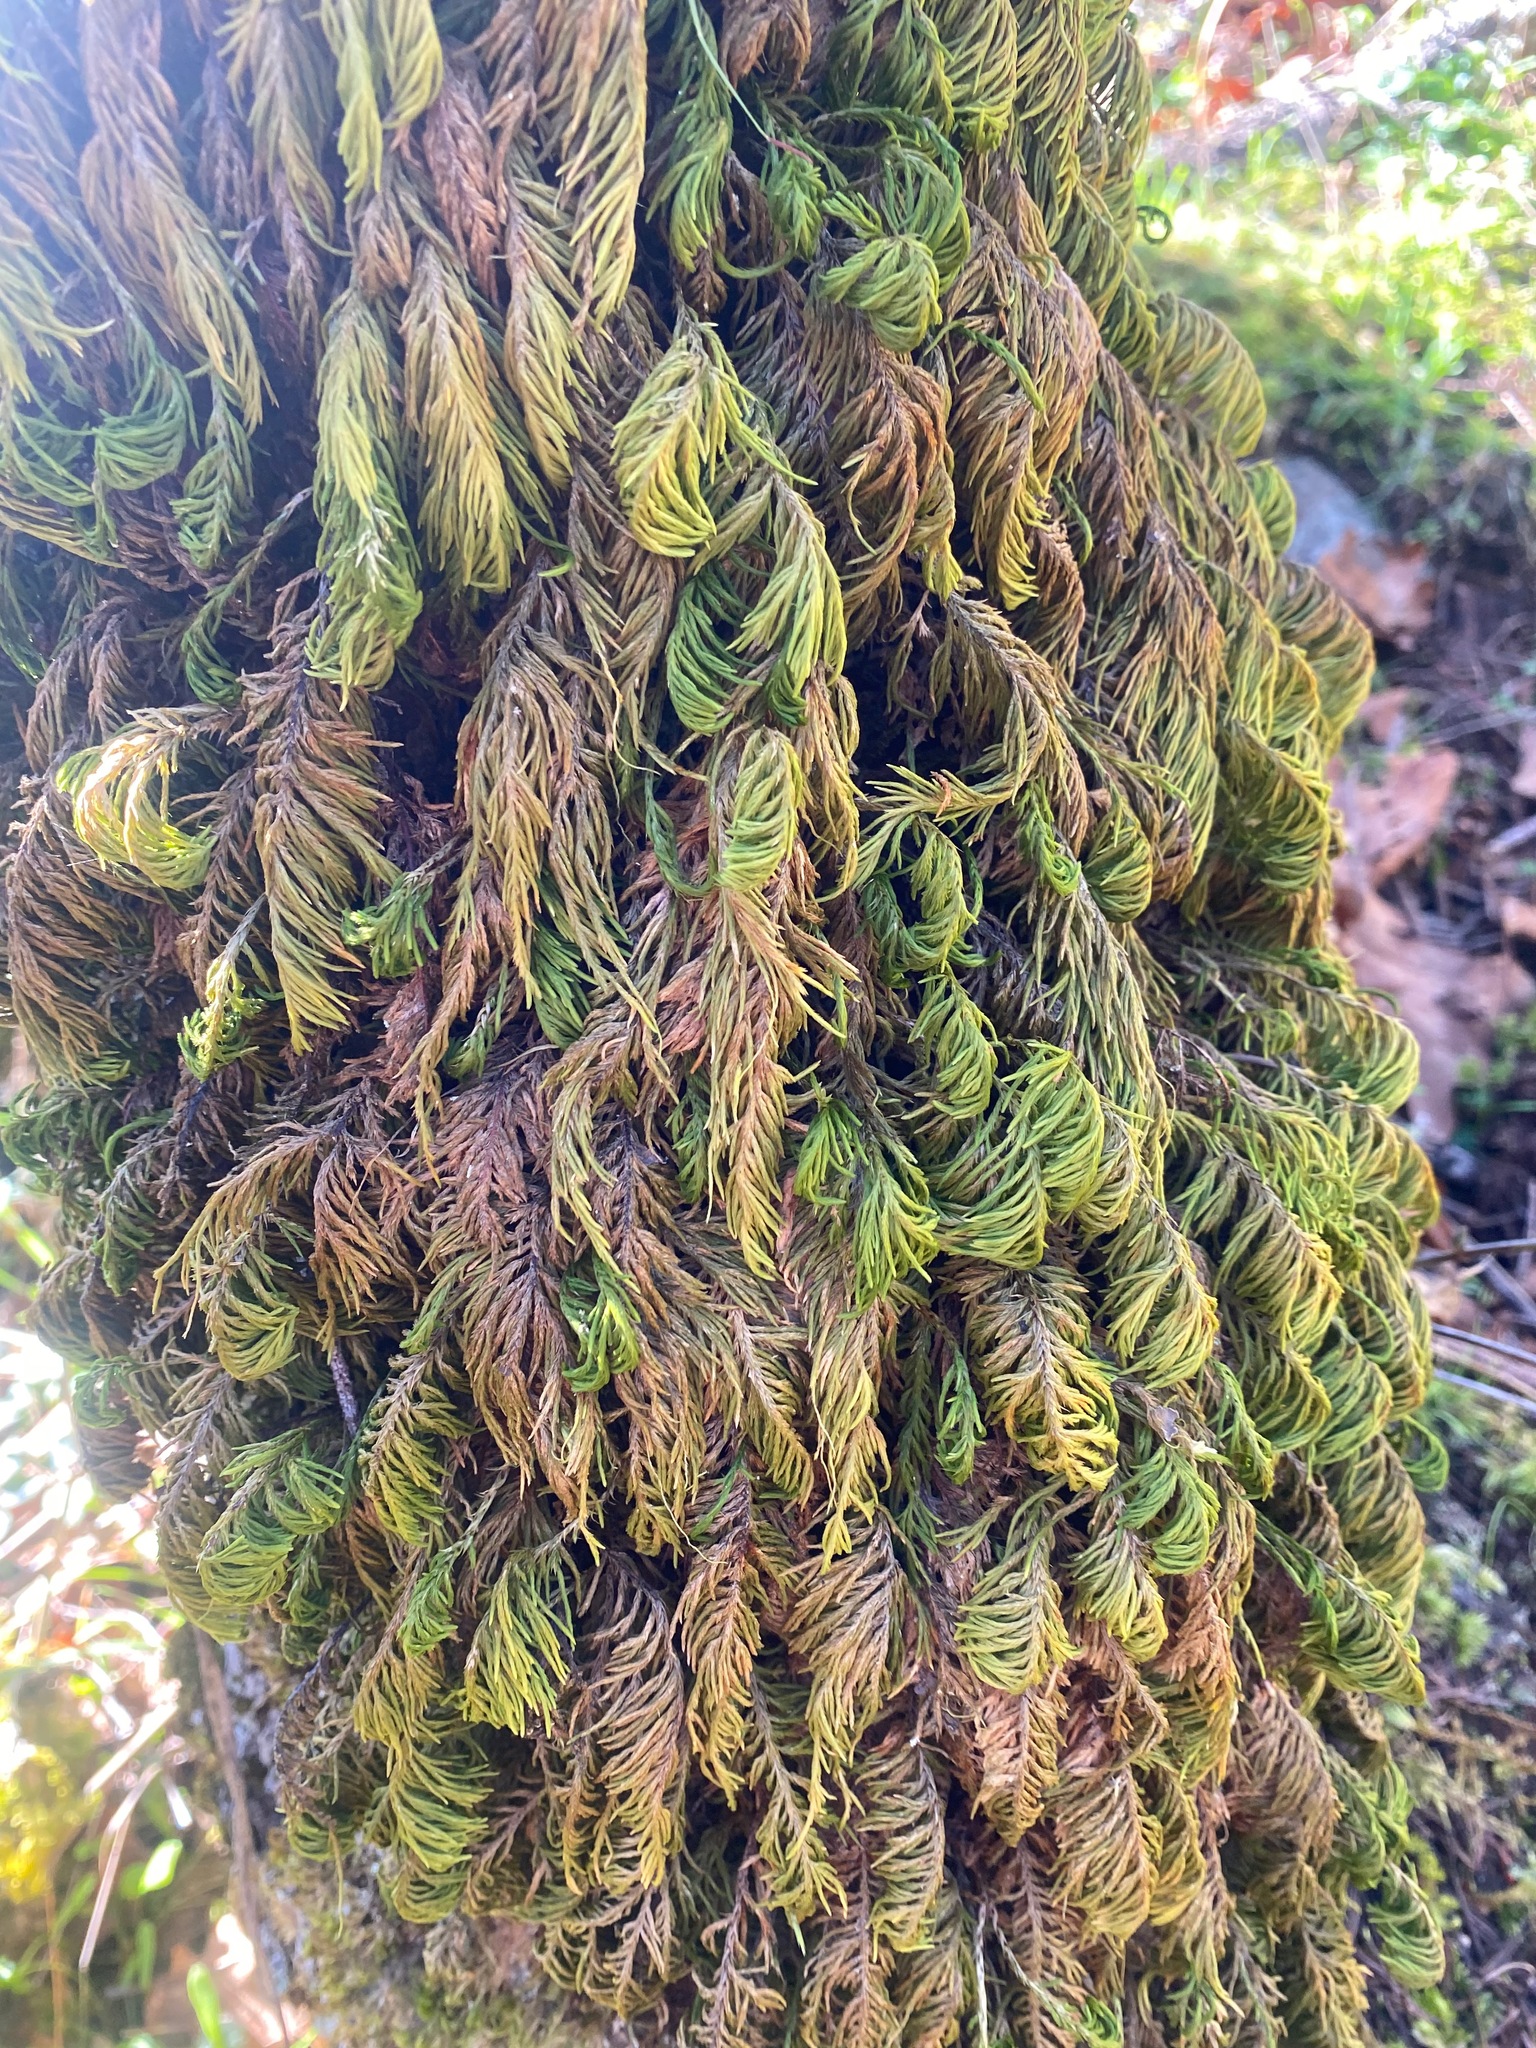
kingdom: Plantae
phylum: Bryophyta
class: Bryopsida
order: Hypnales
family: Cryphaeaceae
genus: Dendroalsia
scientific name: Dendroalsia abietina
